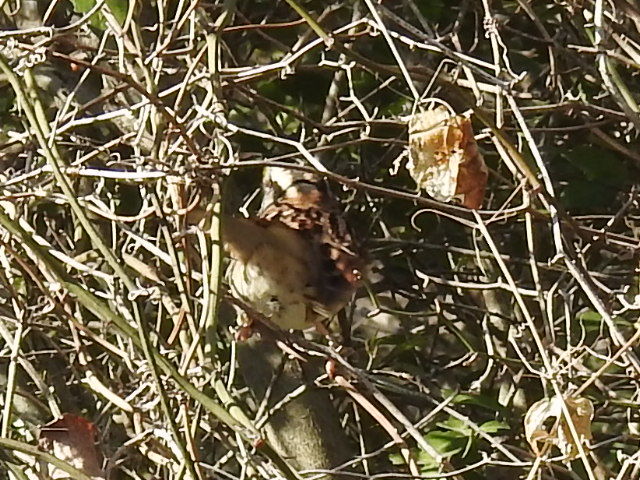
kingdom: Animalia
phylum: Chordata
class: Aves
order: Passeriformes
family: Passerellidae
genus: Zonotrichia
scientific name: Zonotrichia albicollis
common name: White-throated sparrow
